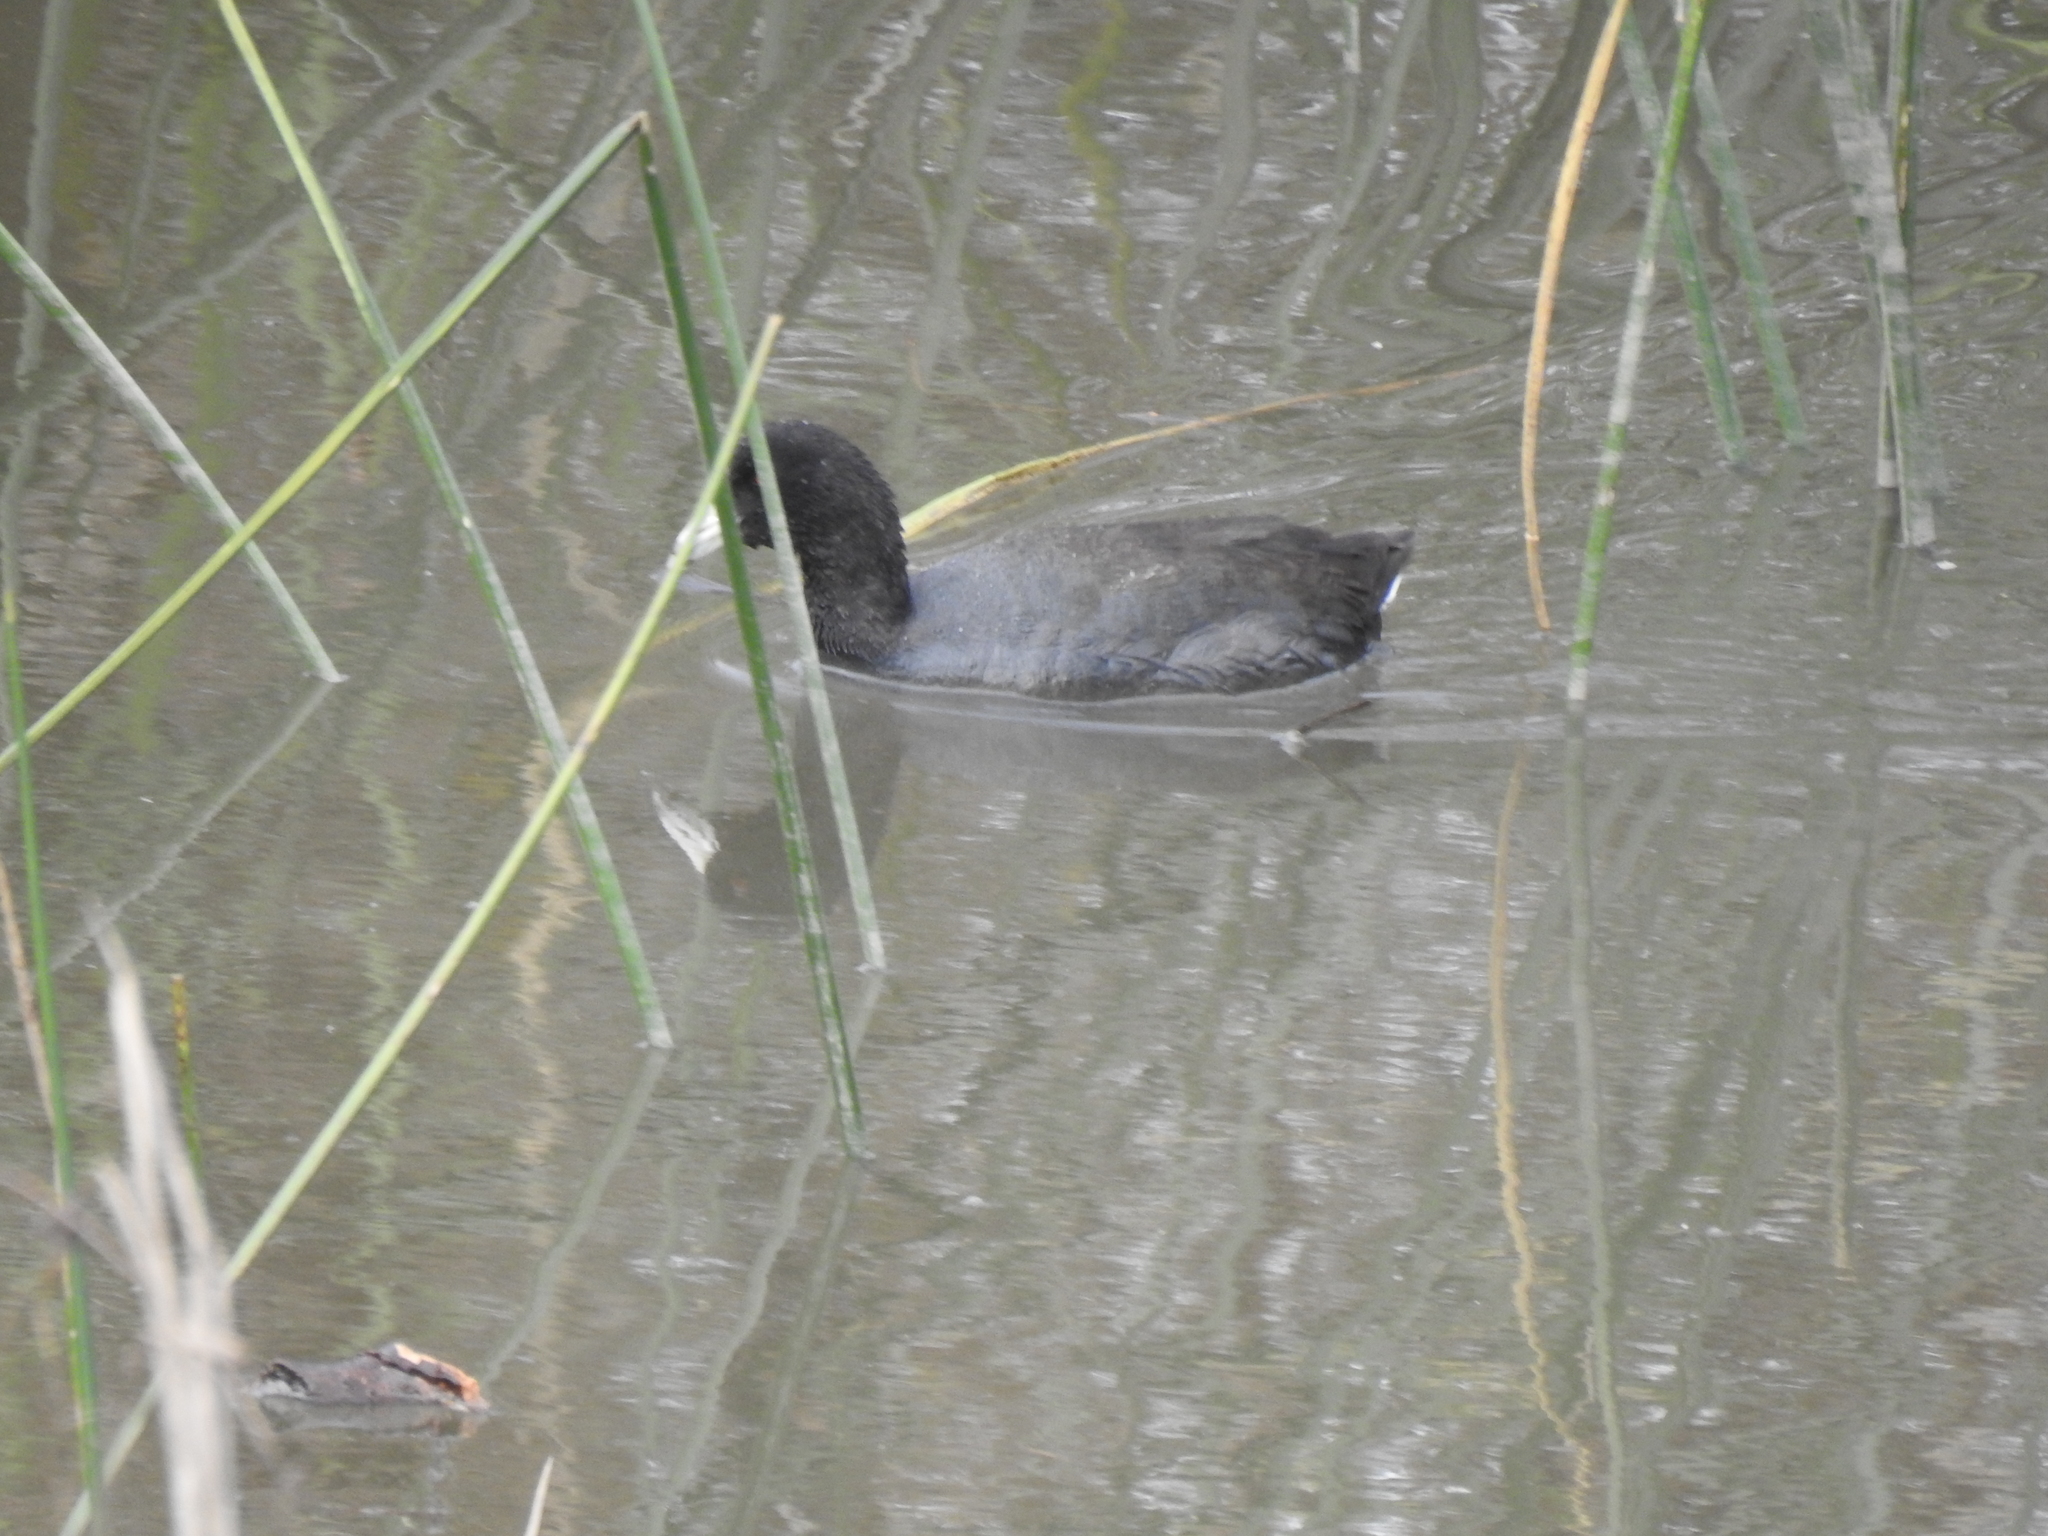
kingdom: Animalia
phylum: Chordata
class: Aves
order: Gruiformes
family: Rallidae
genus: Fulica
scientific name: Fulica americana
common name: American coot
